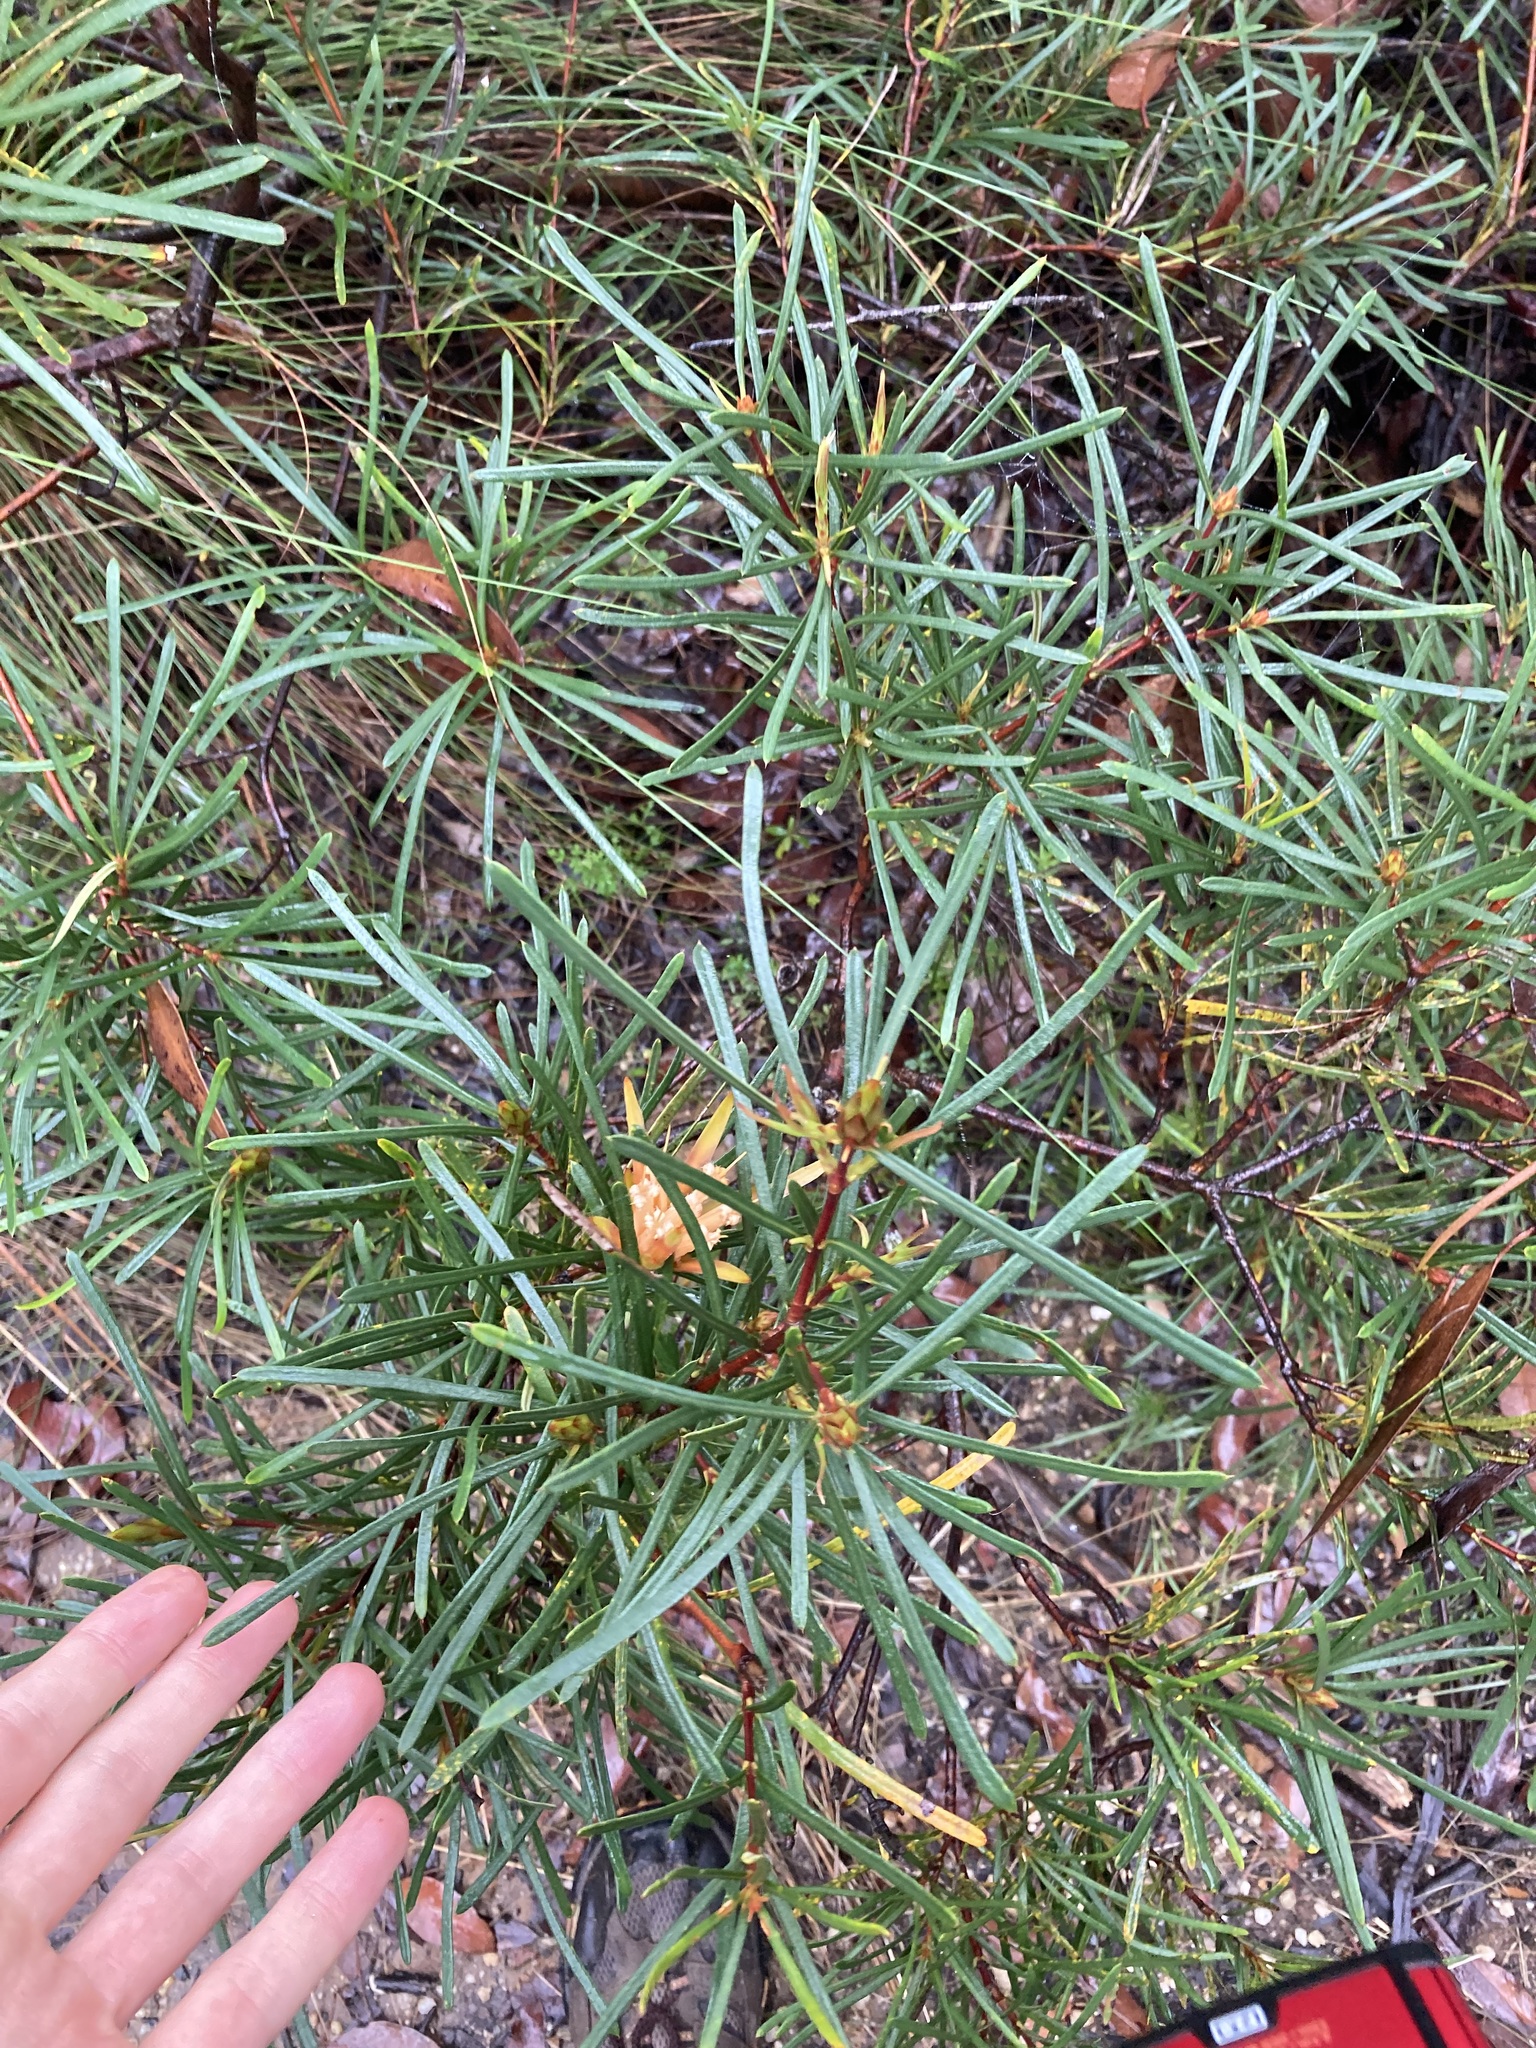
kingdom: Plantae
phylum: Tracheophyta
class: Magnoliopsida
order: Proteales
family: Proteaceae
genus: Lambertia
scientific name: Lambertia formosa
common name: Mountain-devil
